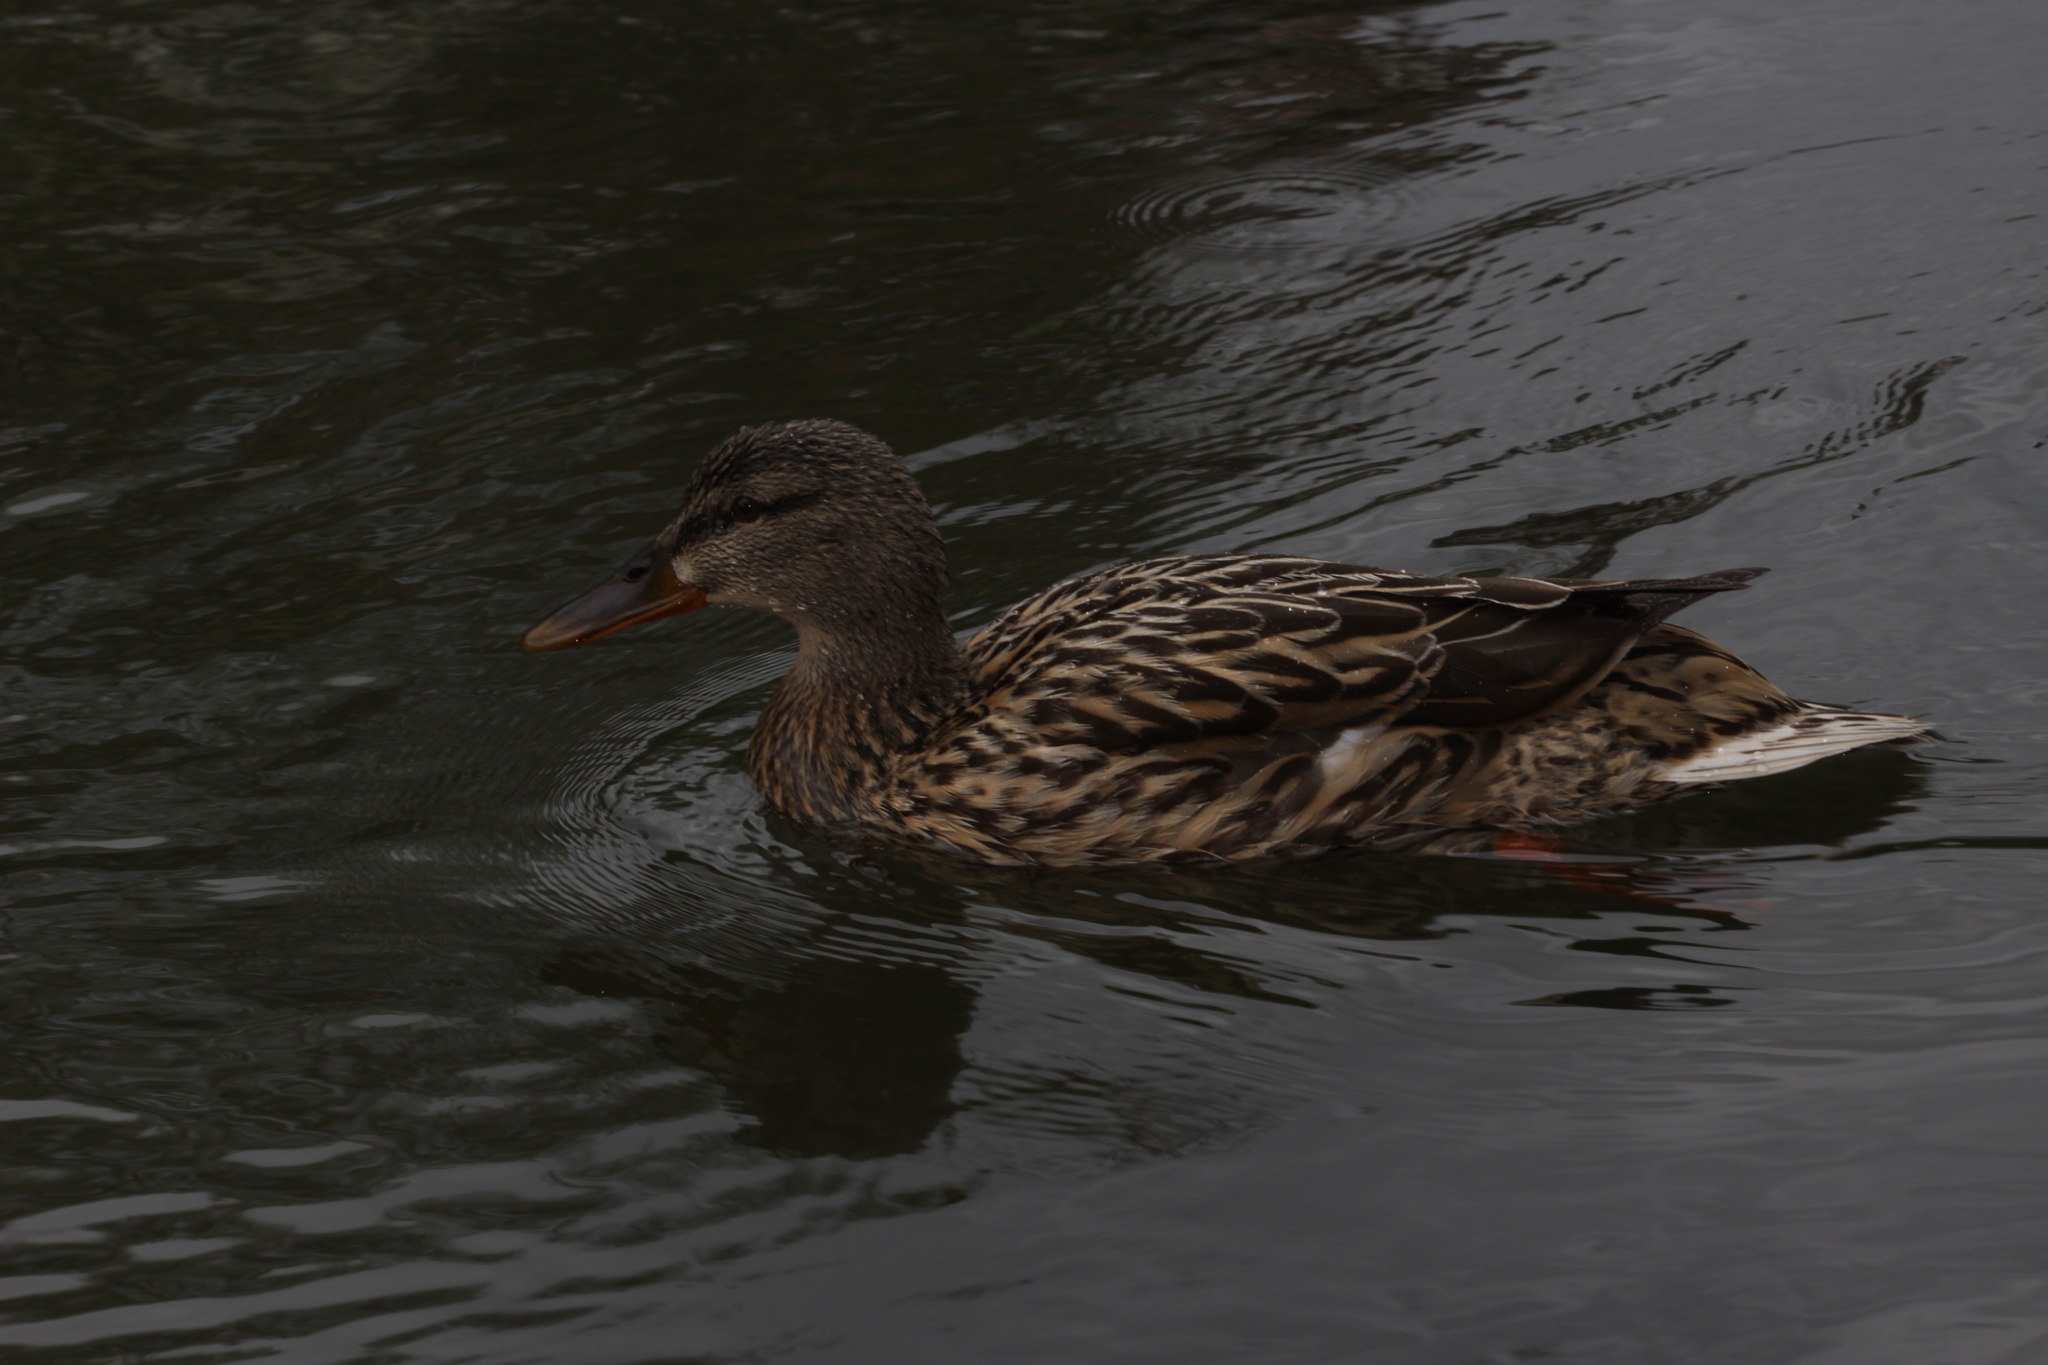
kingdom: Animalia
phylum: Chordata
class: Aves
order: Anseriformes
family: Anatidae
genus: Anas
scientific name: Anas platyrhynchos
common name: Mallard
